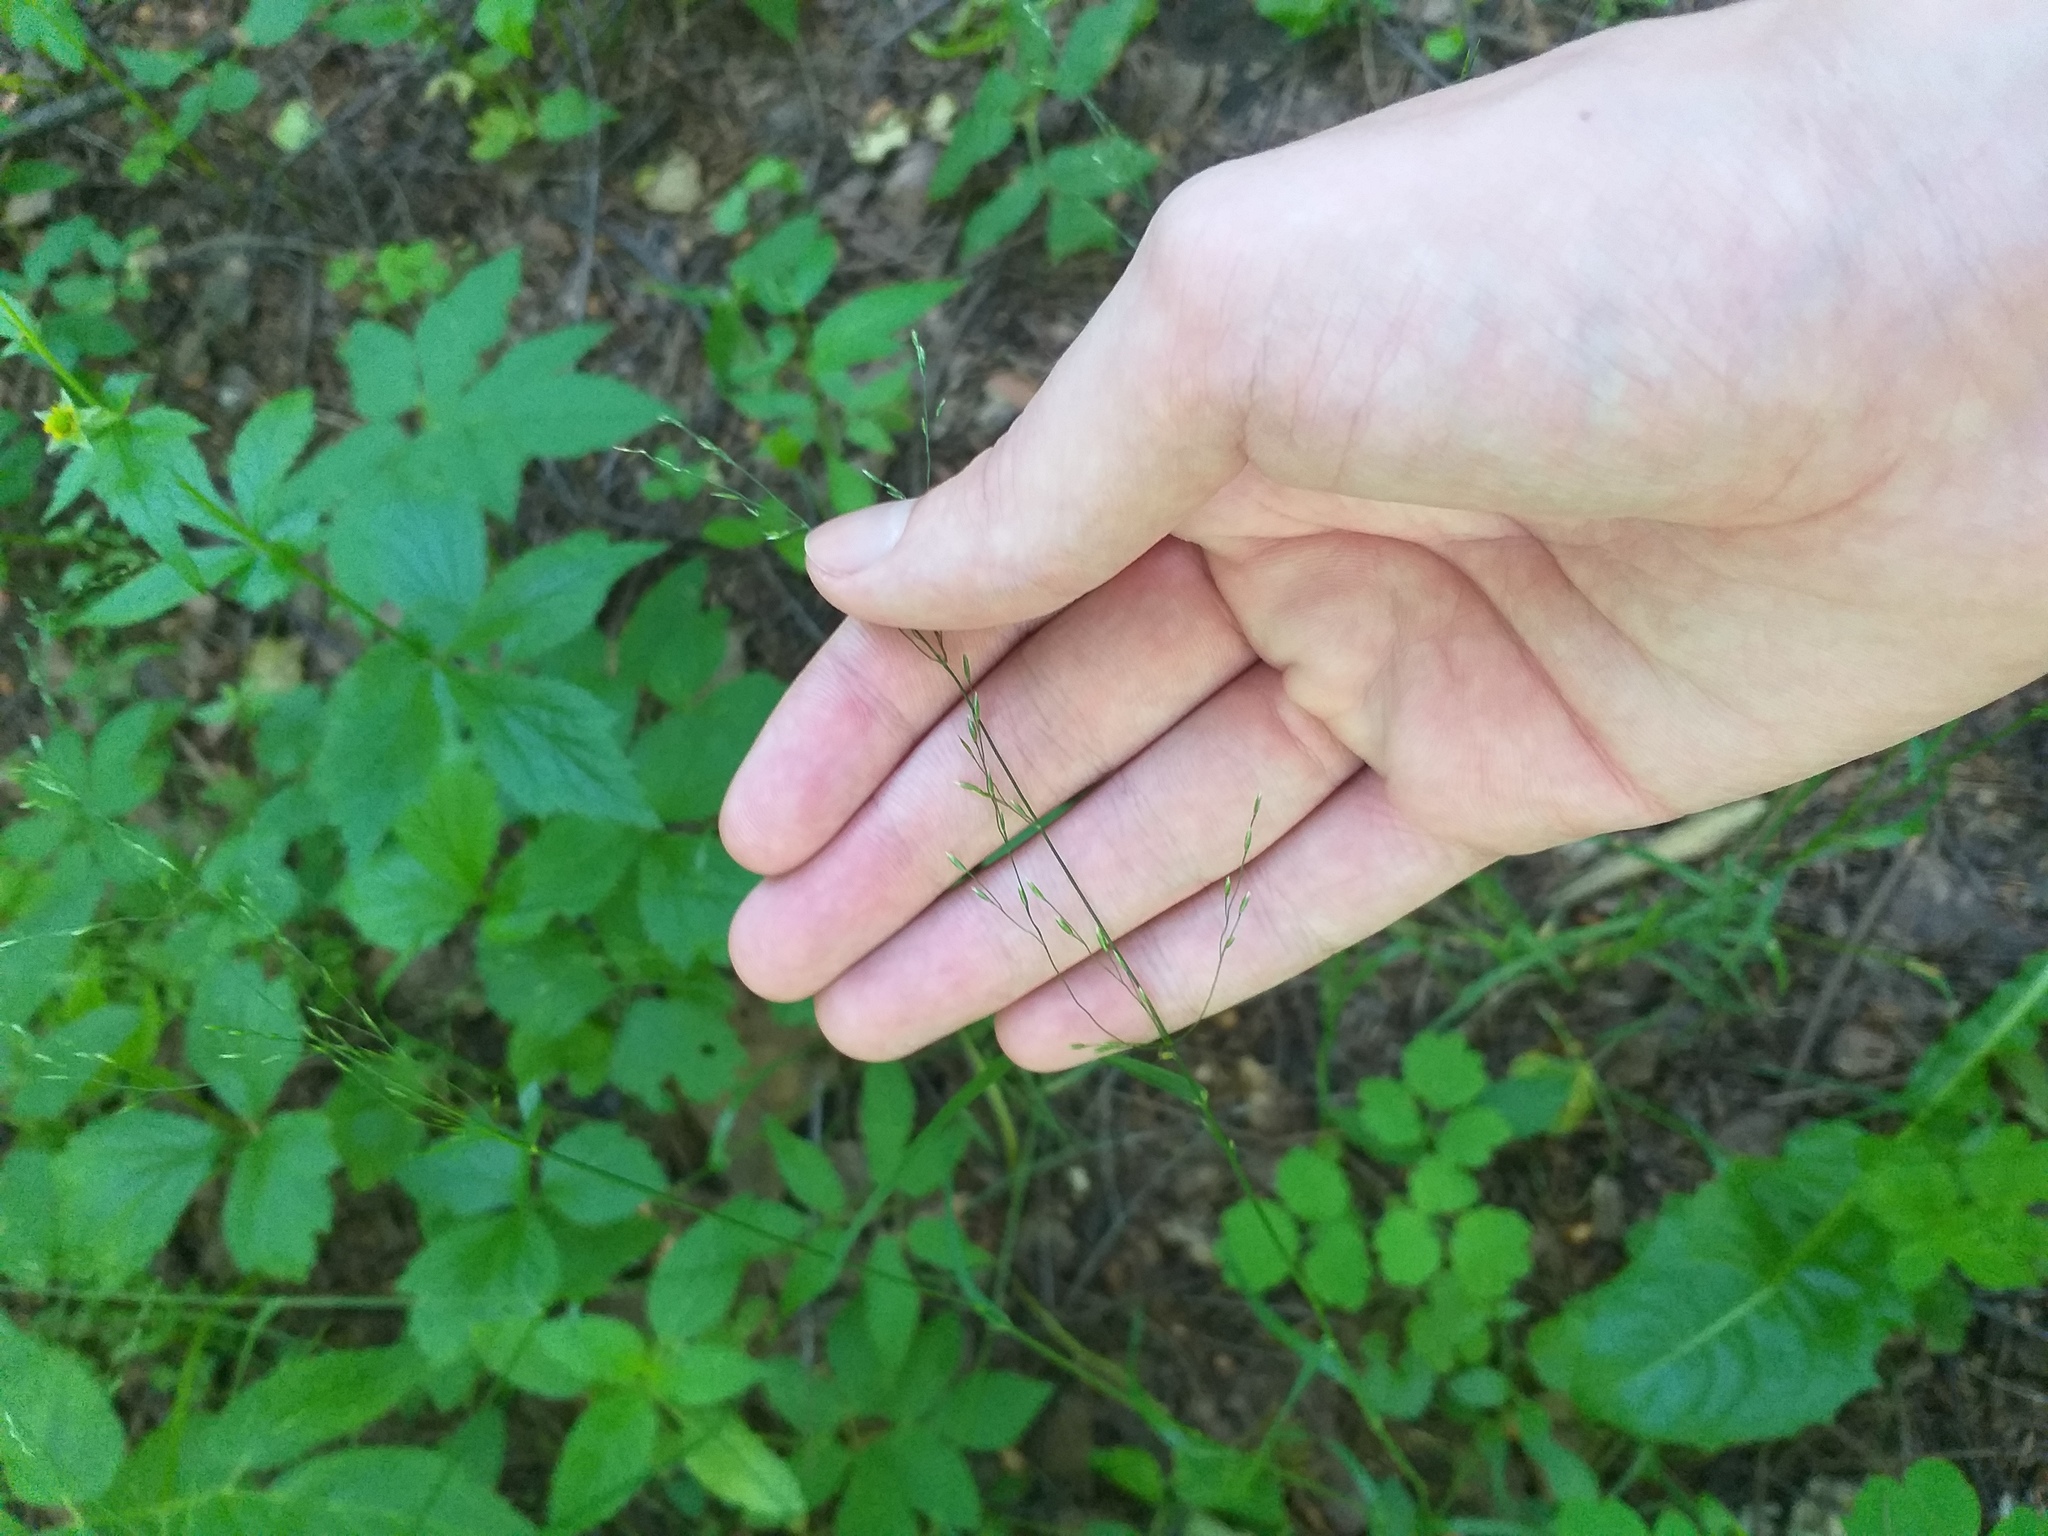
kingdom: Plantae
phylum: Tracheophyta
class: Liliopsida
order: Poales
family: Poaceae
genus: Poa
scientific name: Poa nemoralis
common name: Wood bluegrass
